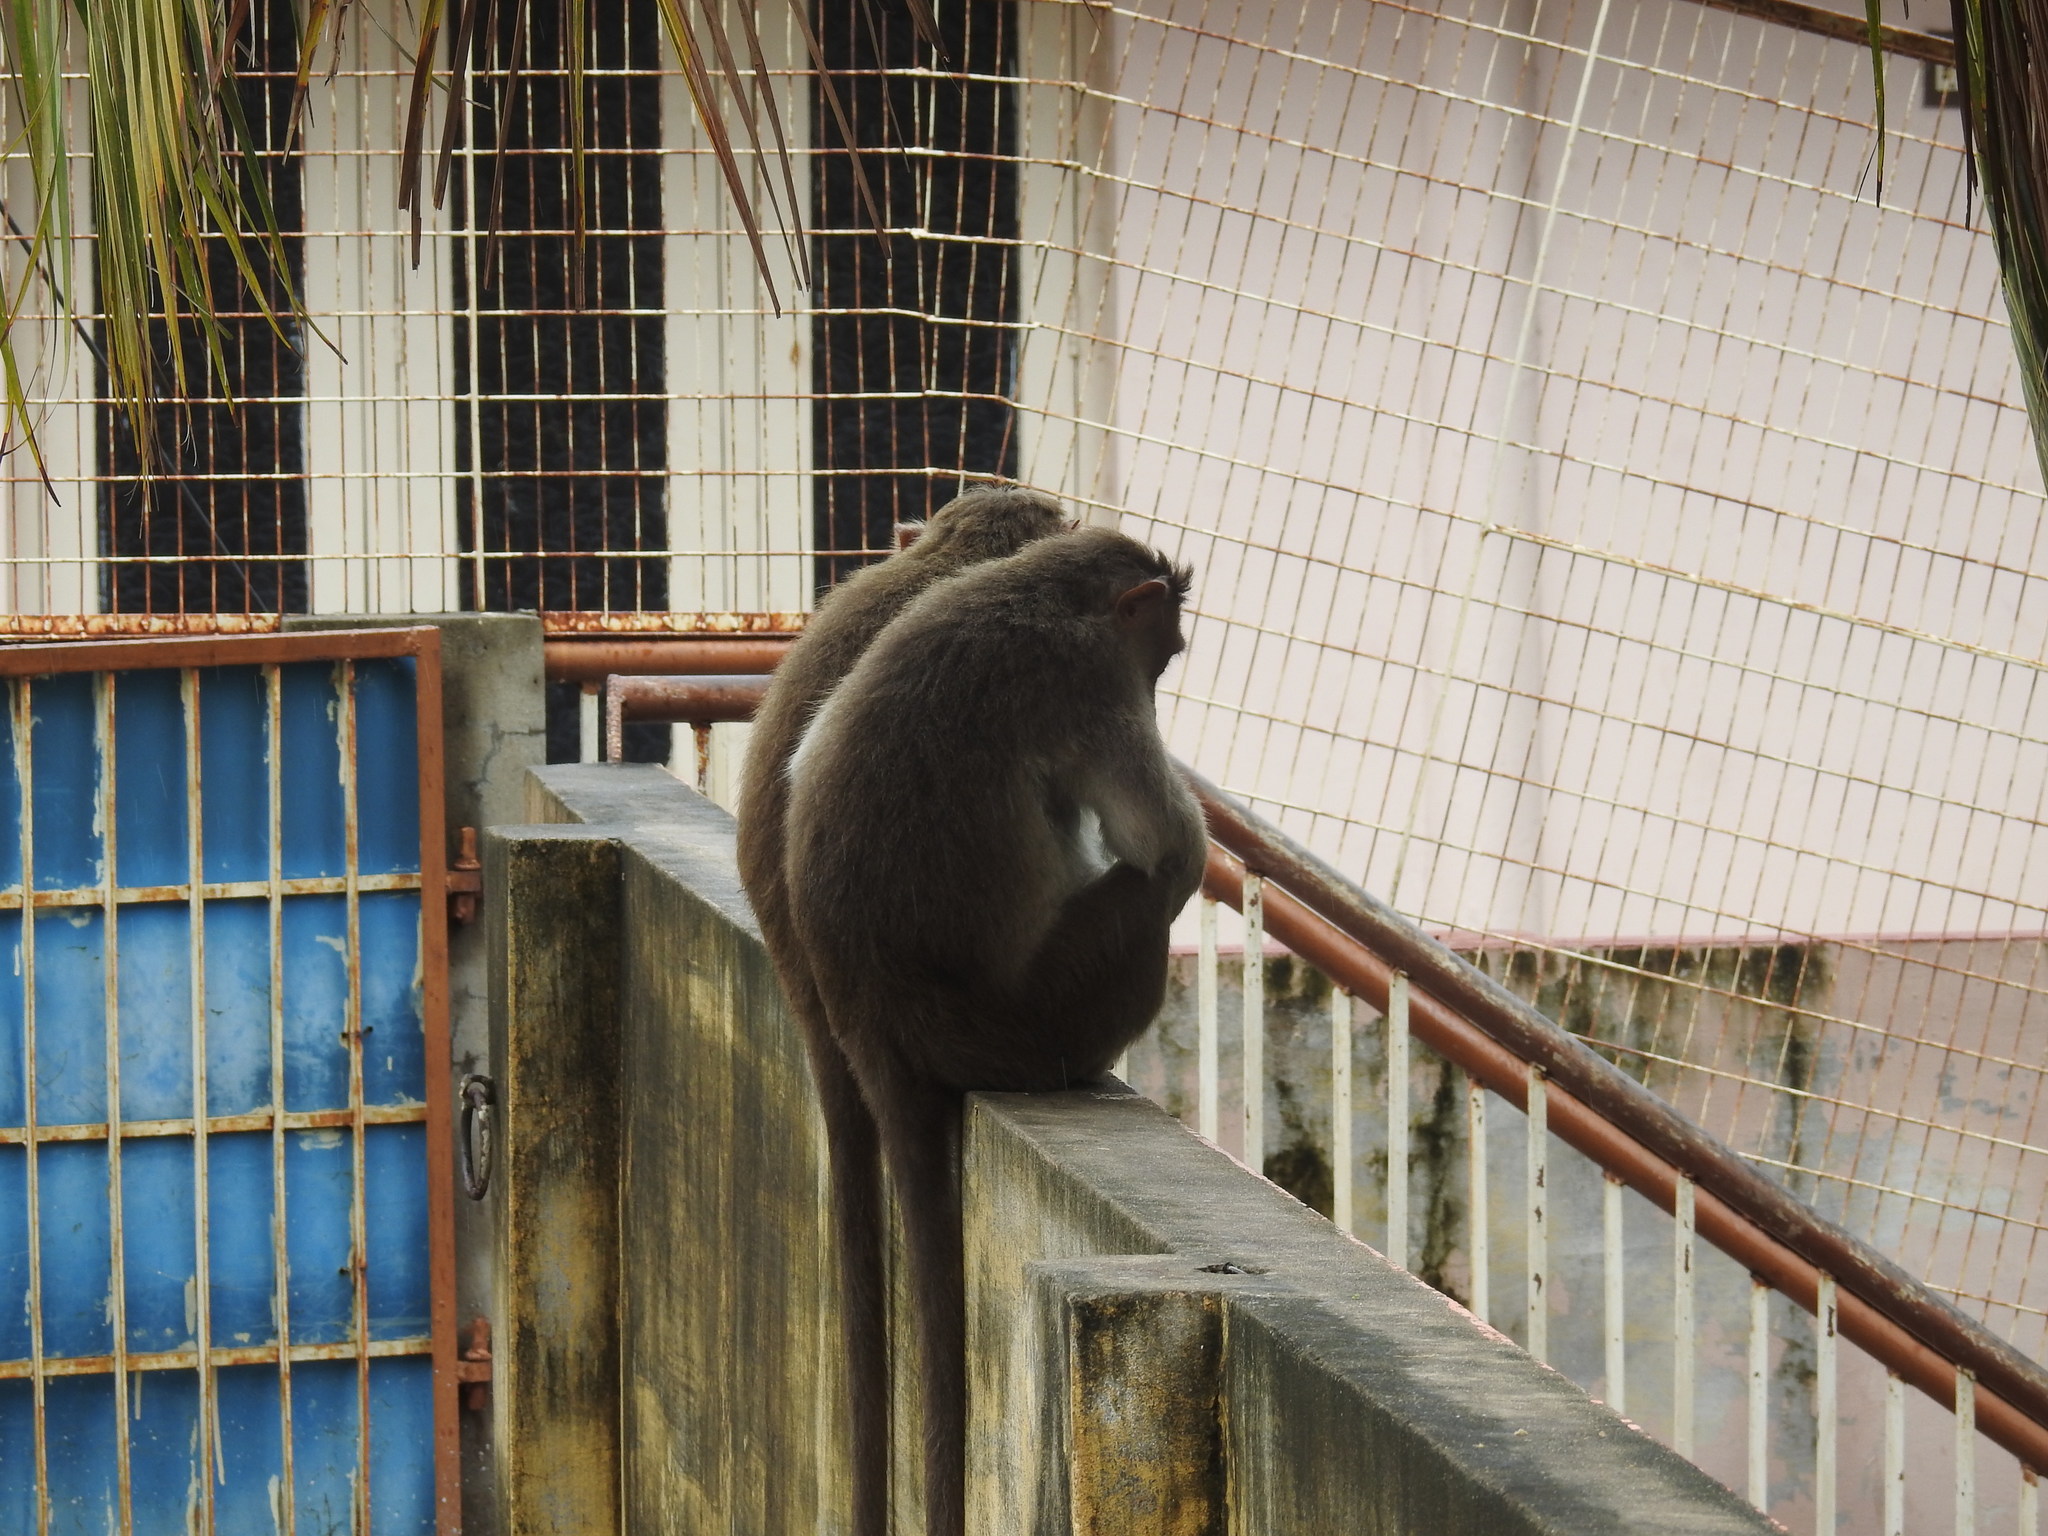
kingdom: Animalia
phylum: Chordata
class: Mammalia
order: Primates
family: Cercopithecidae
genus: Macaca
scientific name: Macaca radiata
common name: Bonnet macaque
